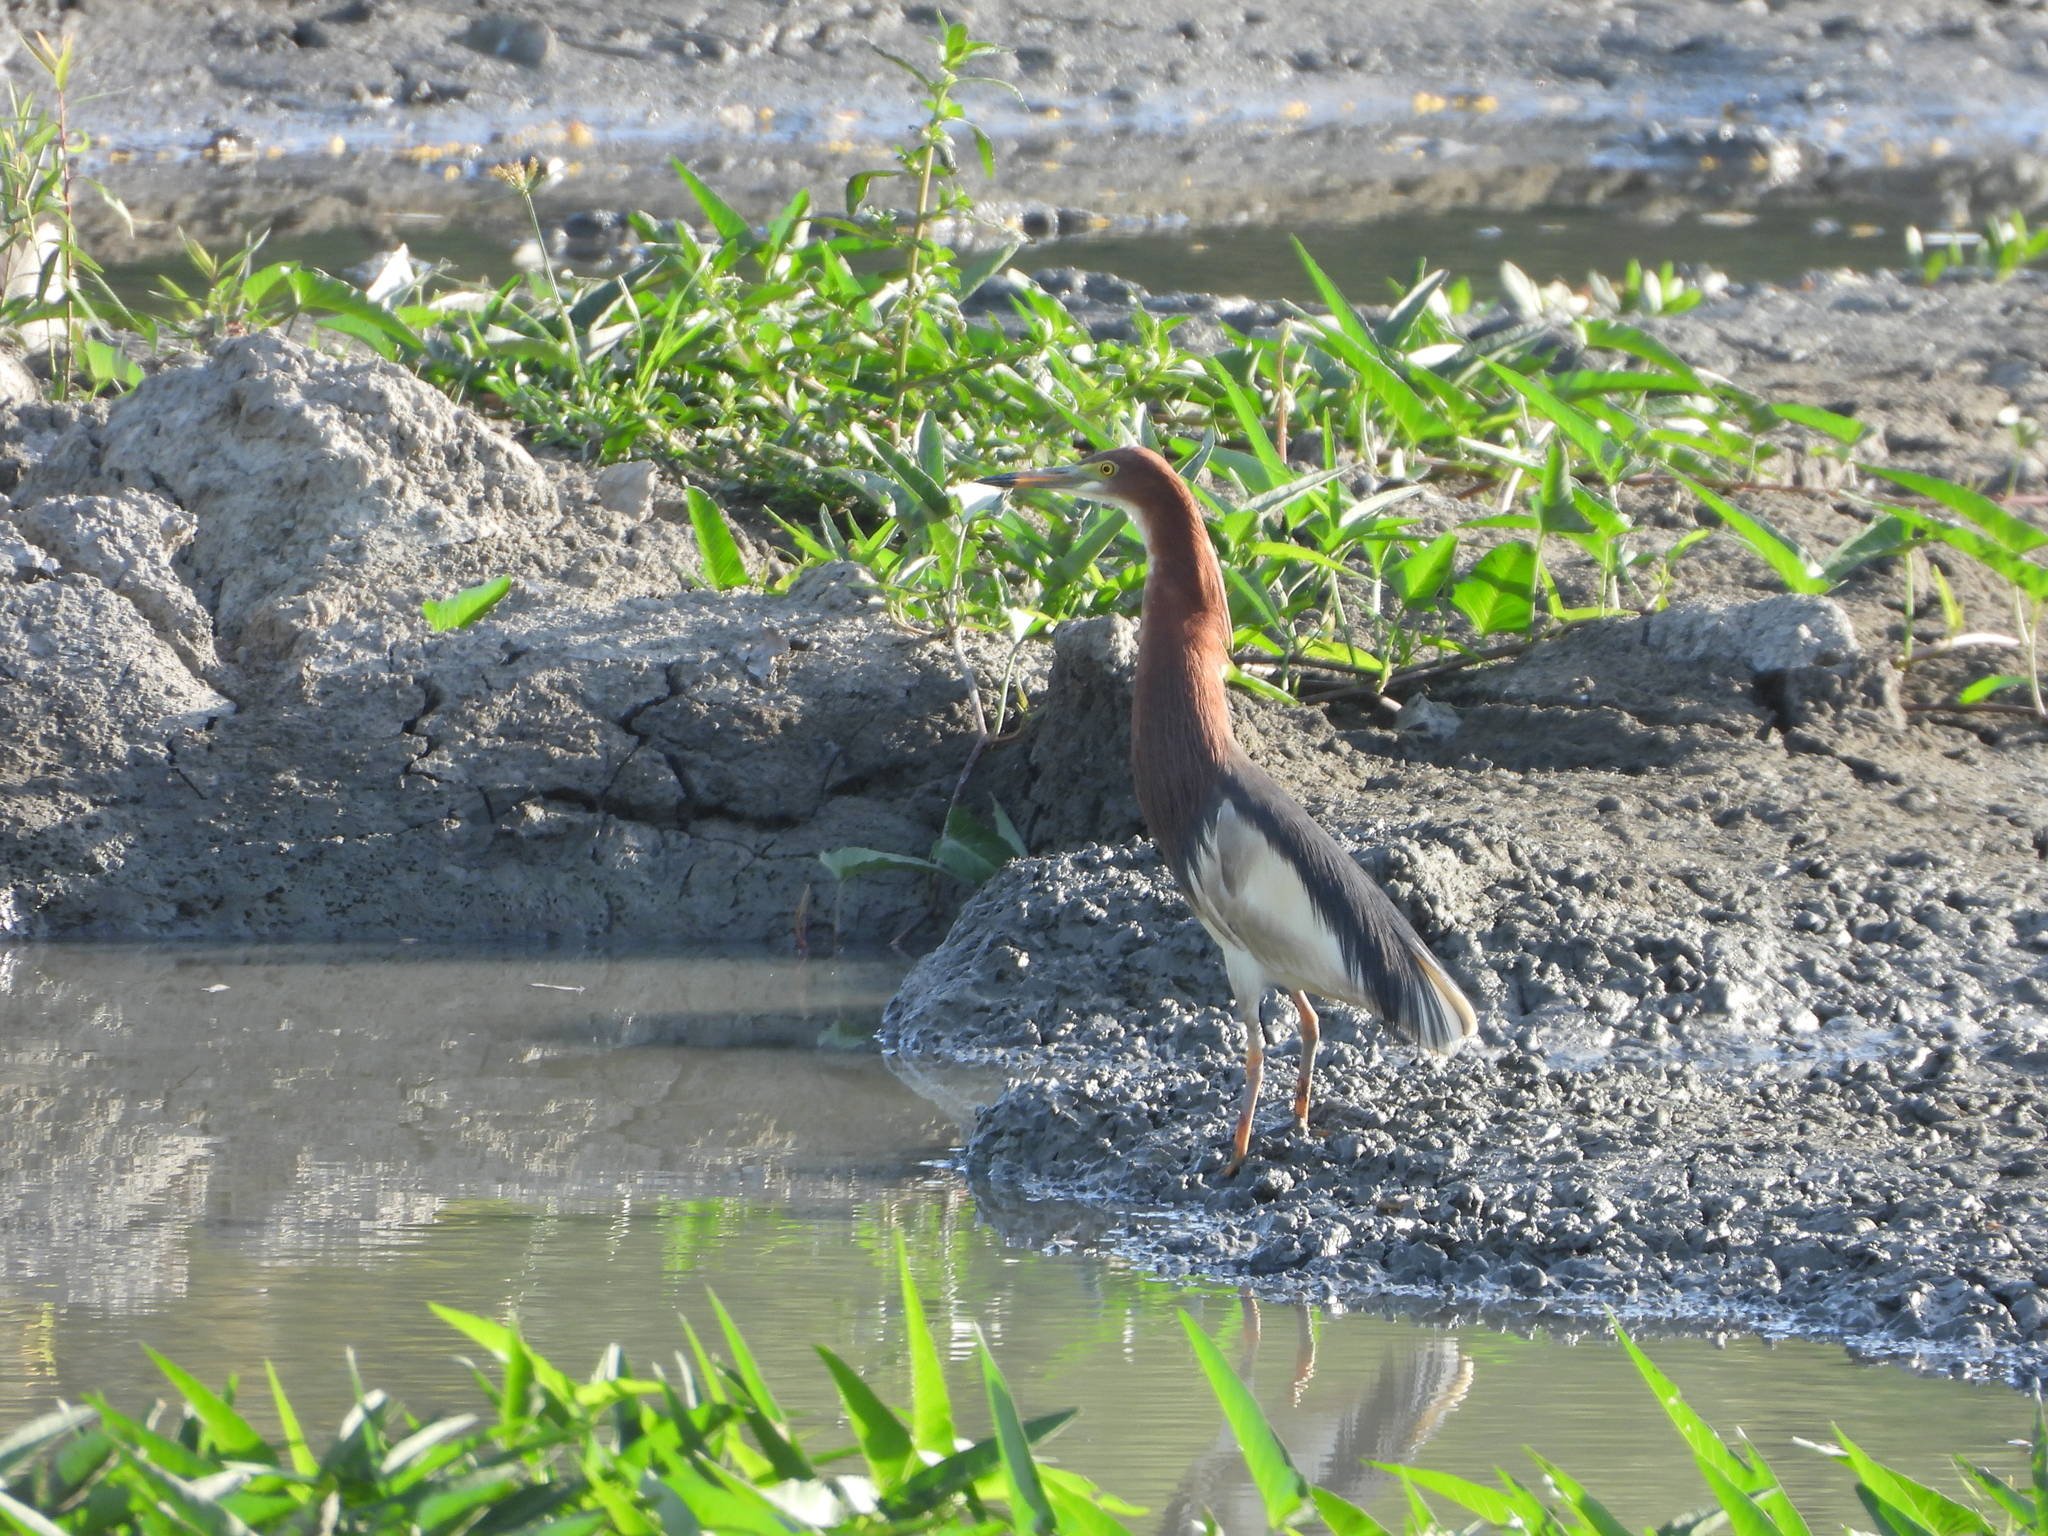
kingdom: Animalia
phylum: Chordata
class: Aves
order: Pelecaniformes
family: Ardeidae
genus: Ardeola
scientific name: Ardeola bacchus
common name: Chinese pond heron
